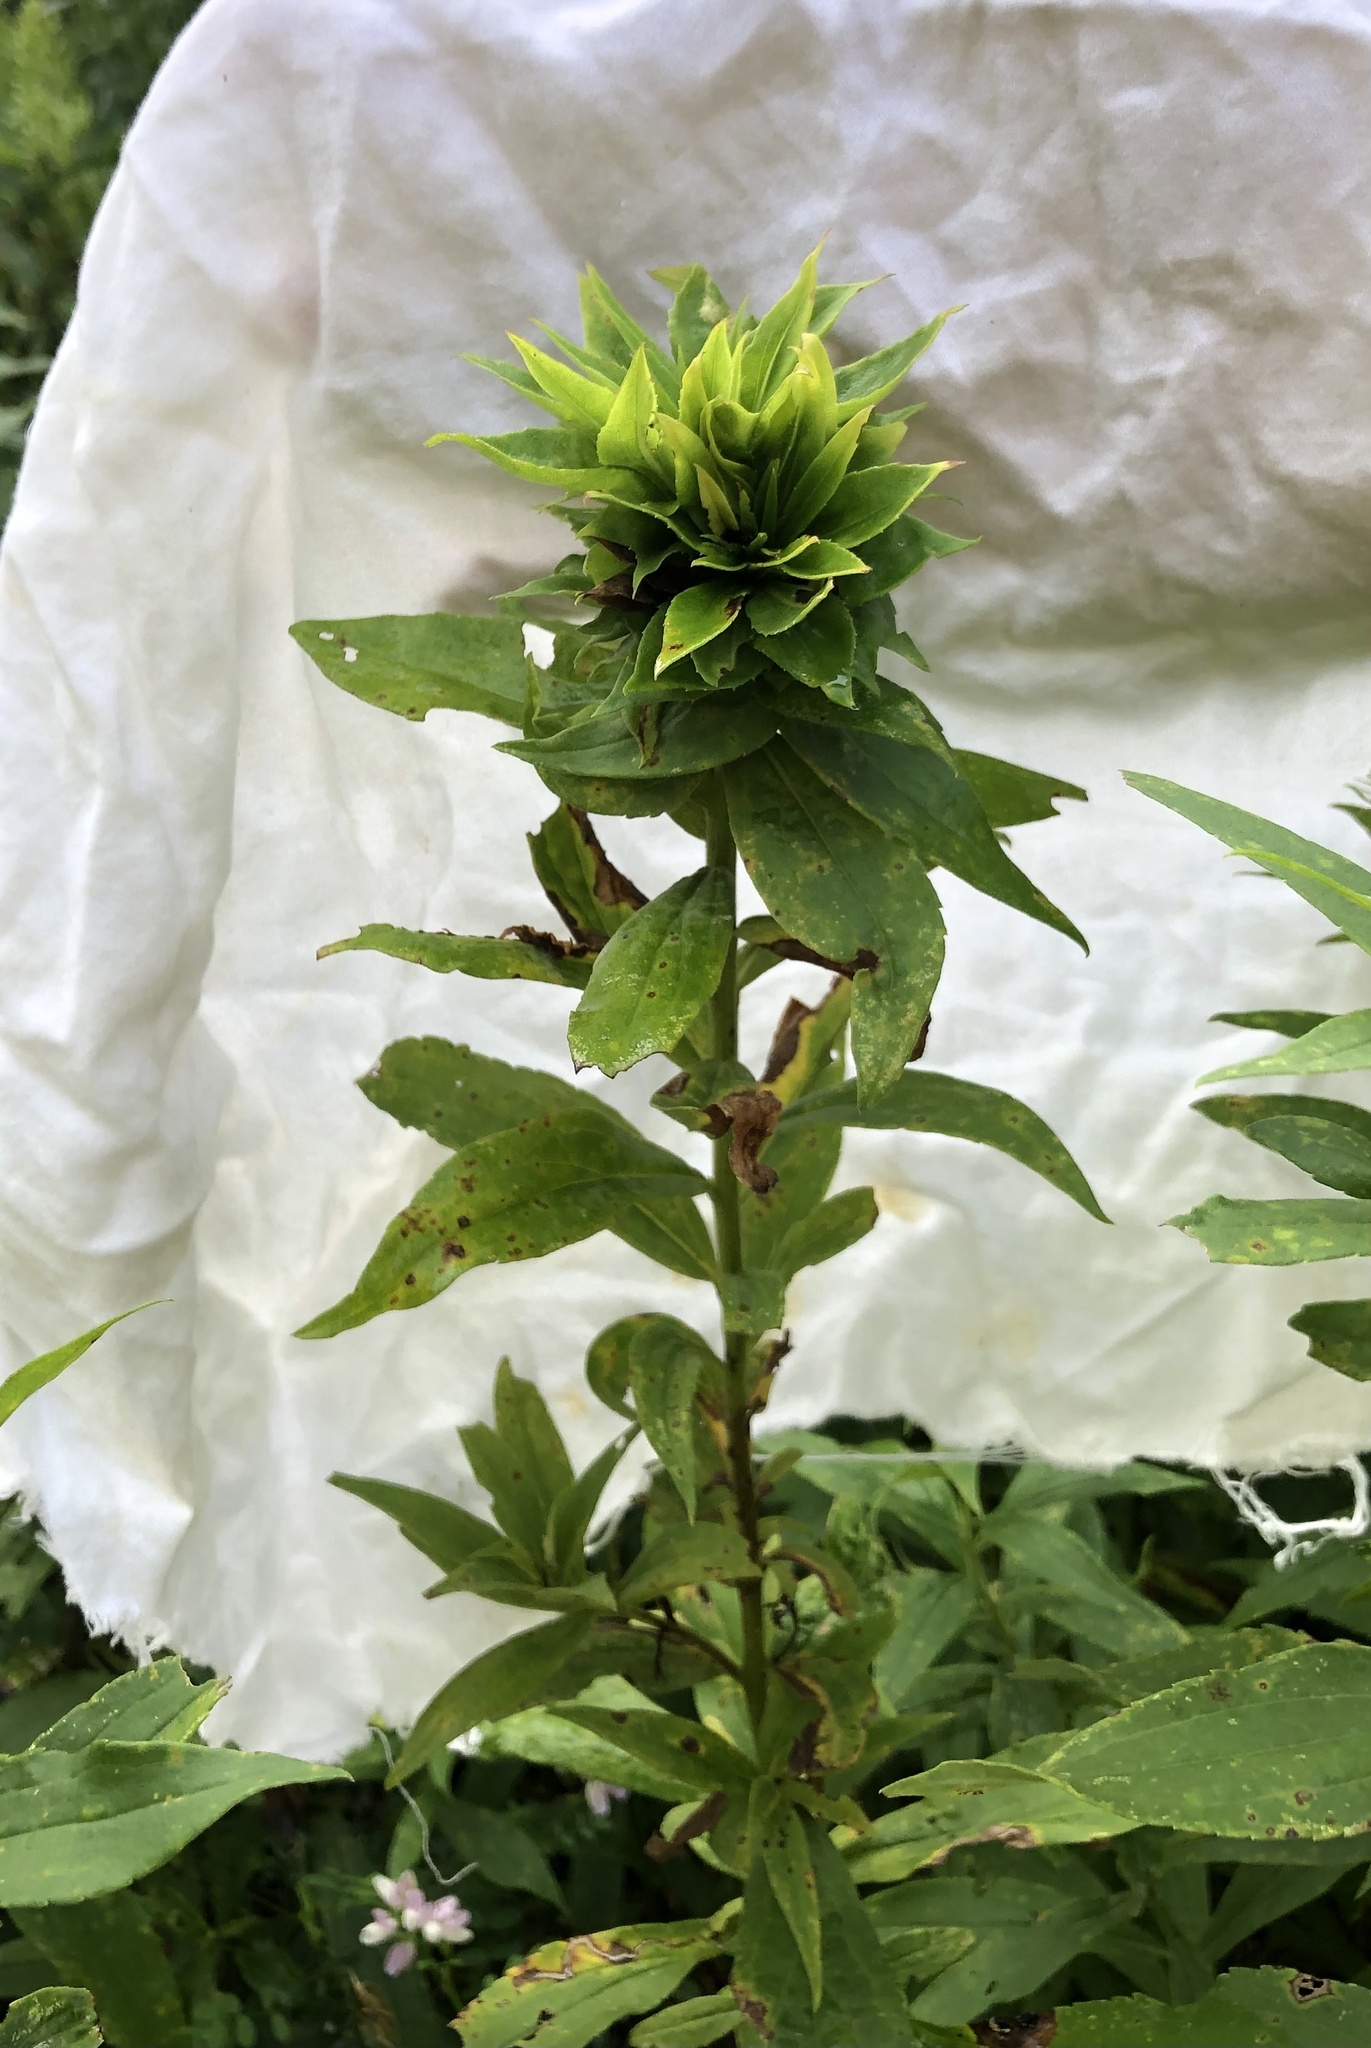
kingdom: Animalia
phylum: Arthropoda
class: Insecta
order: Diptera
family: Cecidomyiidae
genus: Rhopalomyia
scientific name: Rhopalomyia solidaginis
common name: Goldenrod bunch gall midge
